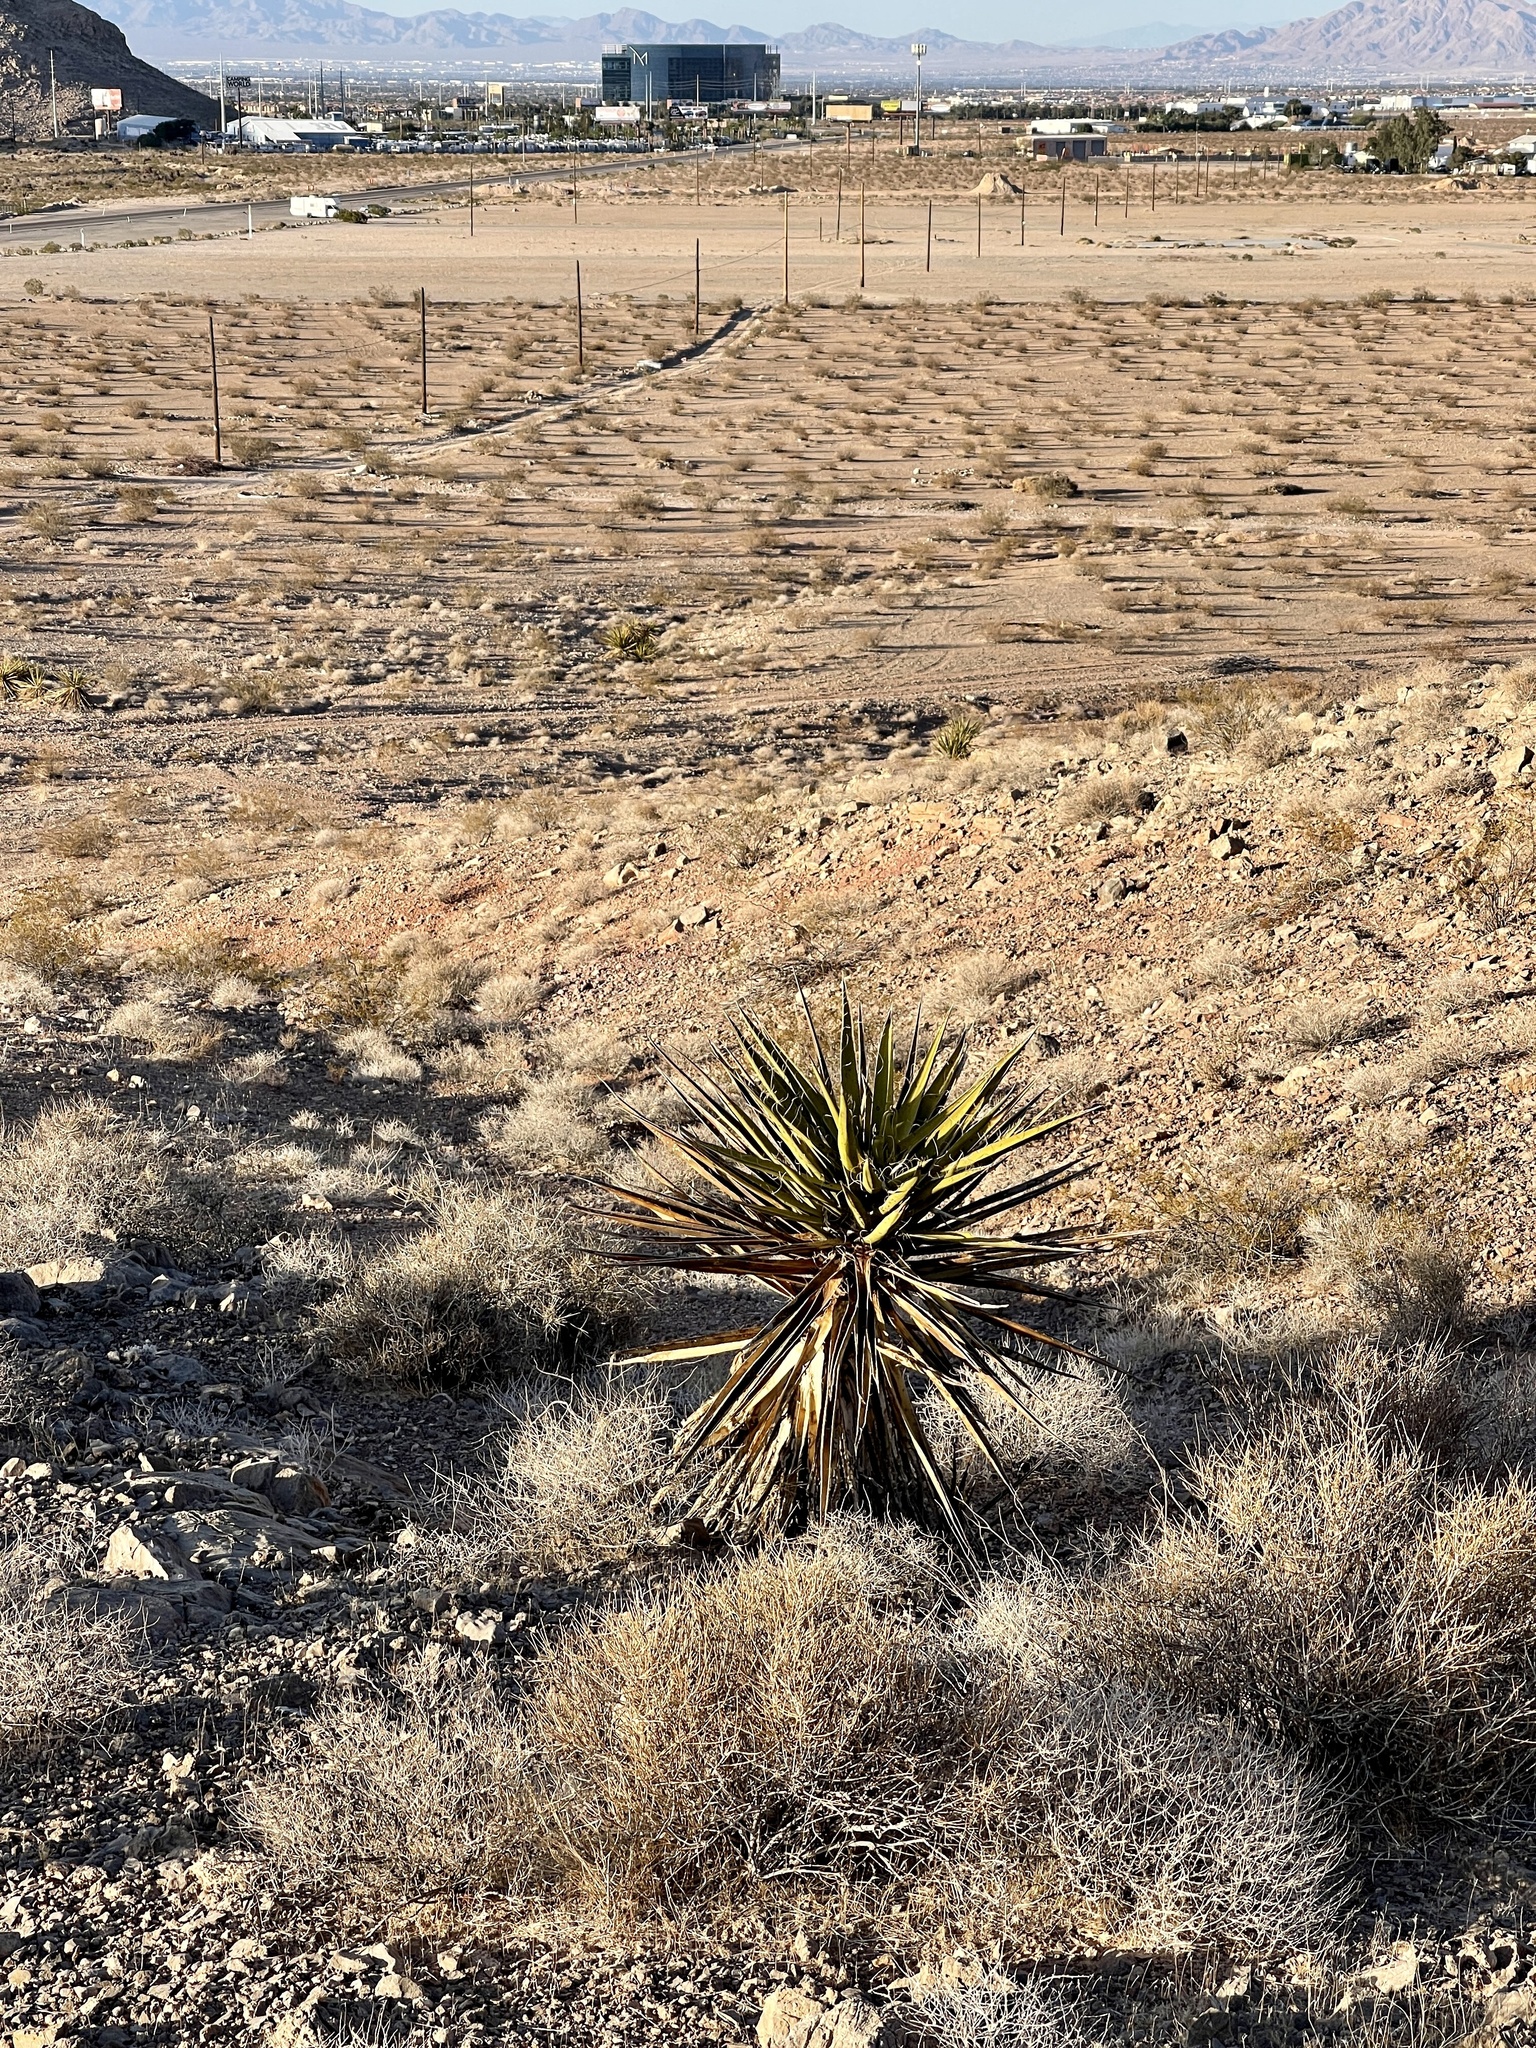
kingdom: Plantae
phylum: Tracheophyta
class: Liliopsida
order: Asparagales
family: Asparagaceae
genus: Yucca
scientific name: Yucca schidigera
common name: Mojave yucca
